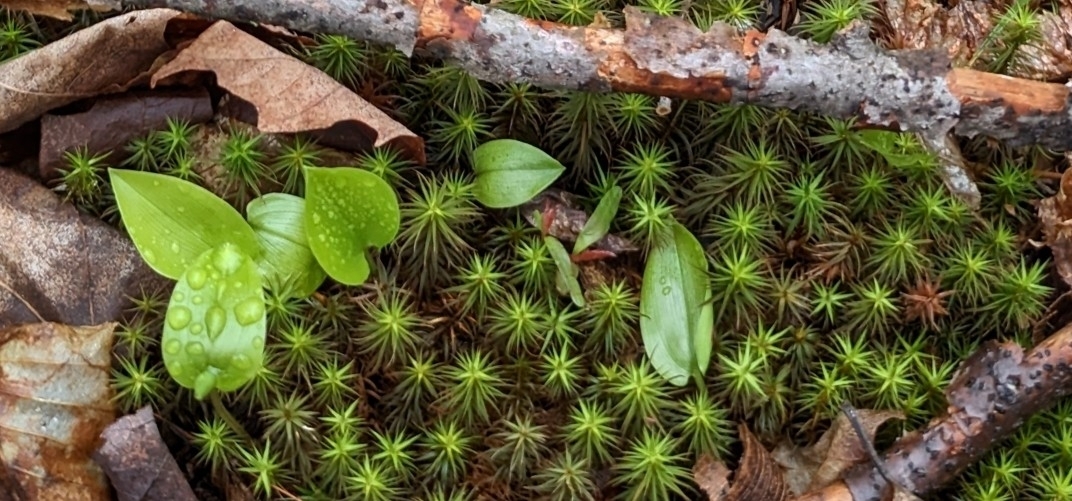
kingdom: Plantae
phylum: Tracheophyta
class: Liliopsida
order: Asparagales
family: Asparagaceae
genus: Maianthemum
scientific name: Maianthemum canadense
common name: False lily-of-the-valley
